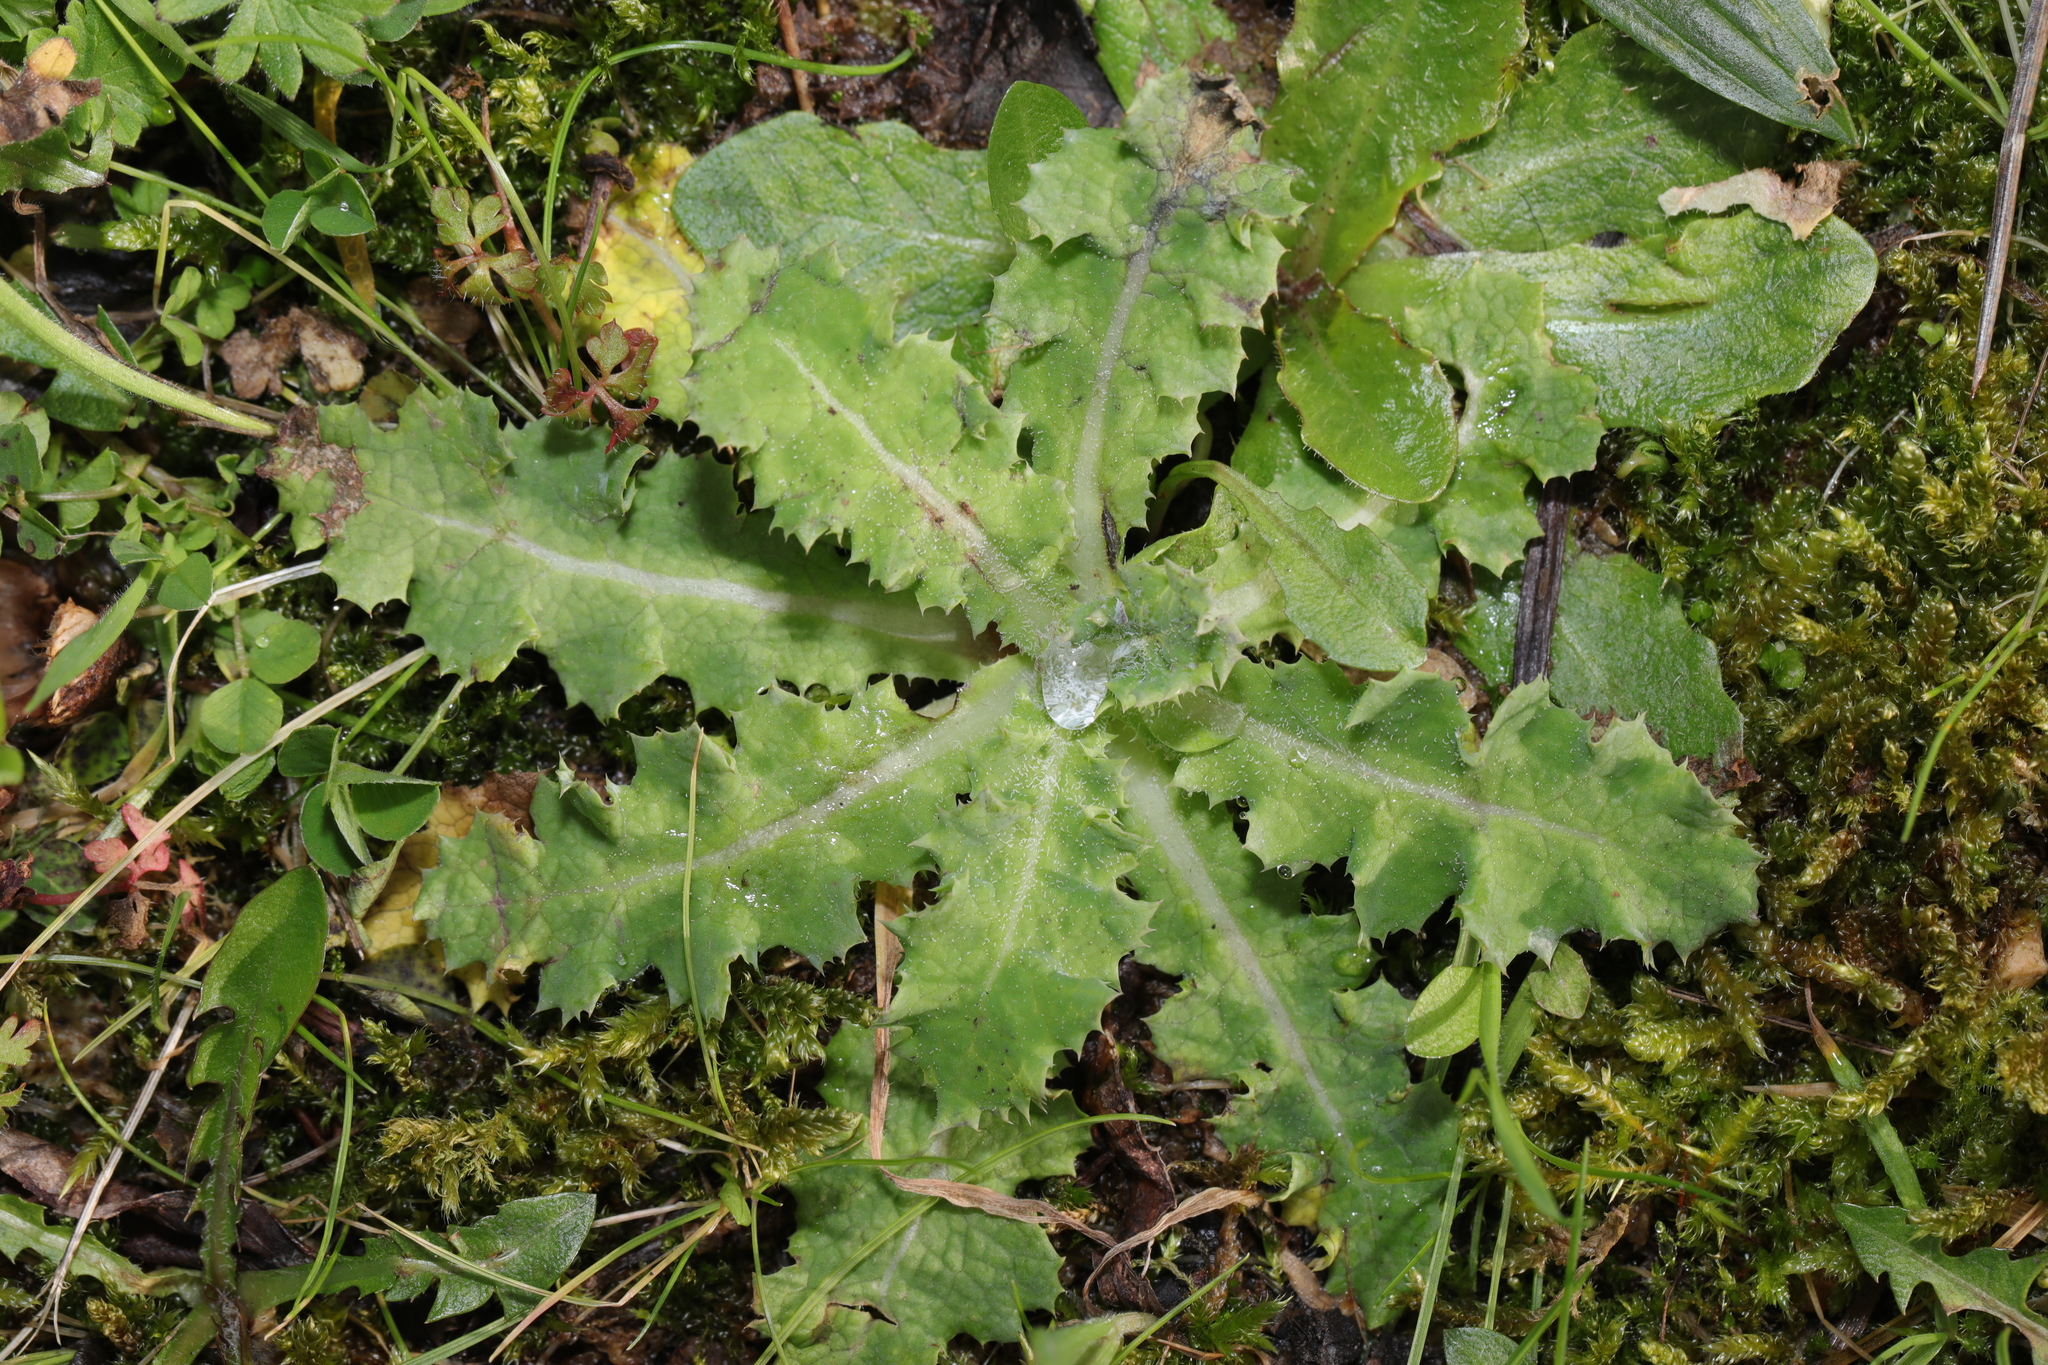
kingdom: Plantae
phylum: Tracheophyta
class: Magnoliopsida
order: Asterales
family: Asteraceae
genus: Sonchus
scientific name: Sonchus asper
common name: Prickly sow-thistle
